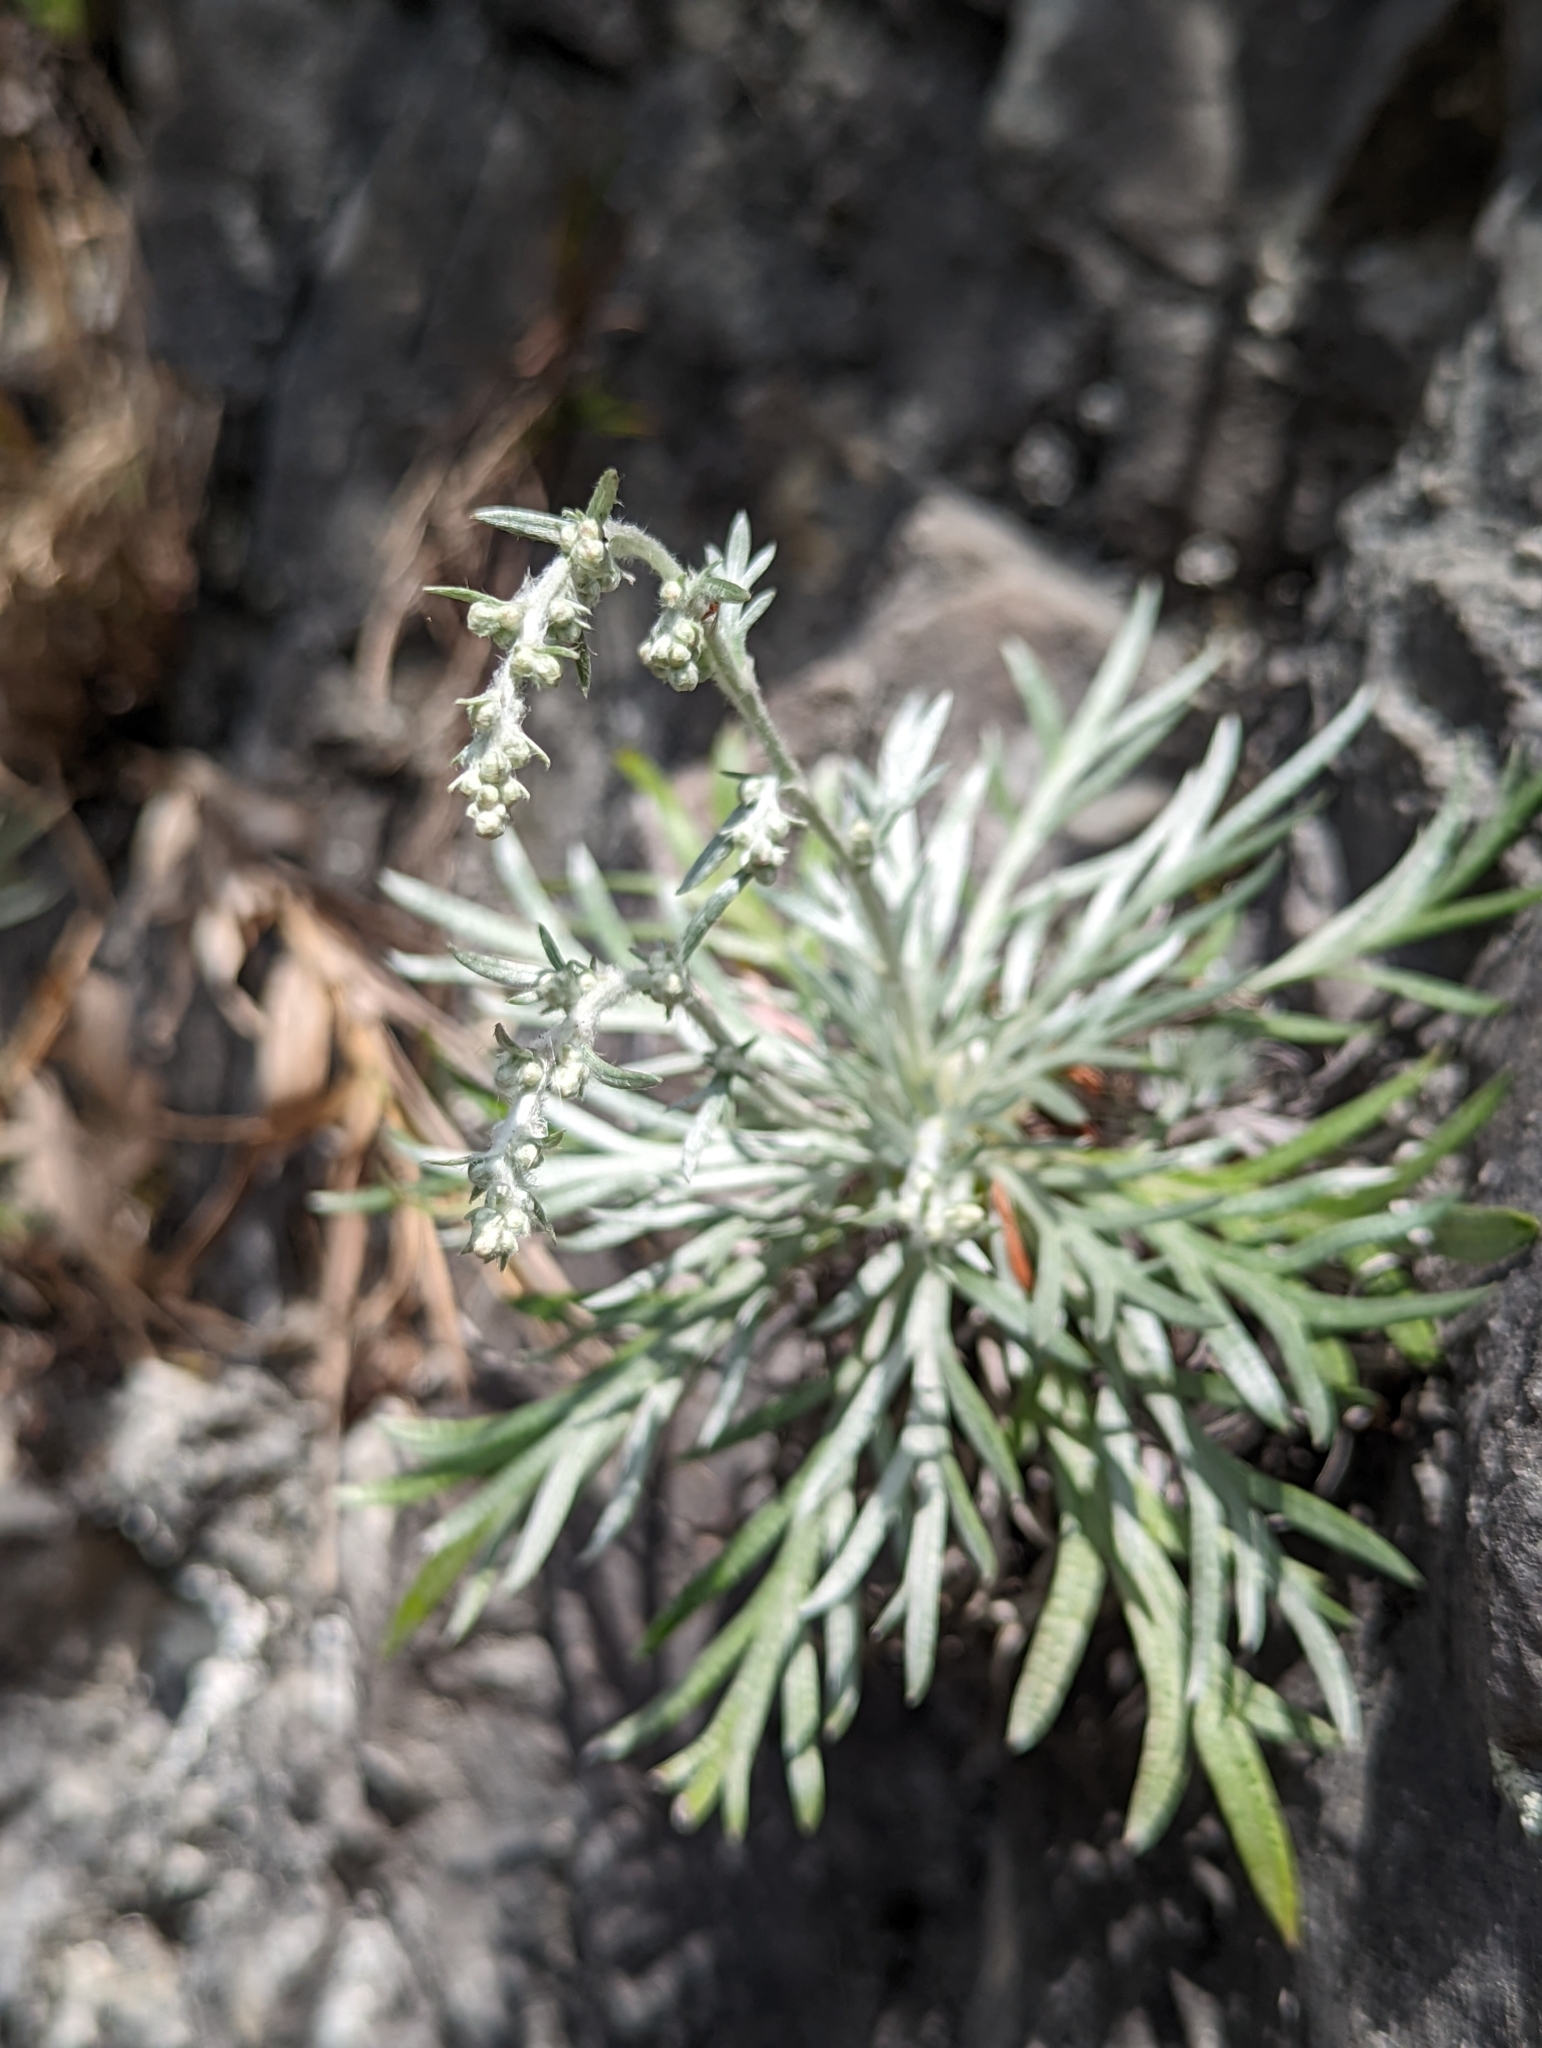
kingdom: Plantae
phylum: Tracheophyta
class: Magnoliopsida
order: Asterales
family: Asteraceae
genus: Artemisia
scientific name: Artemisia somae
